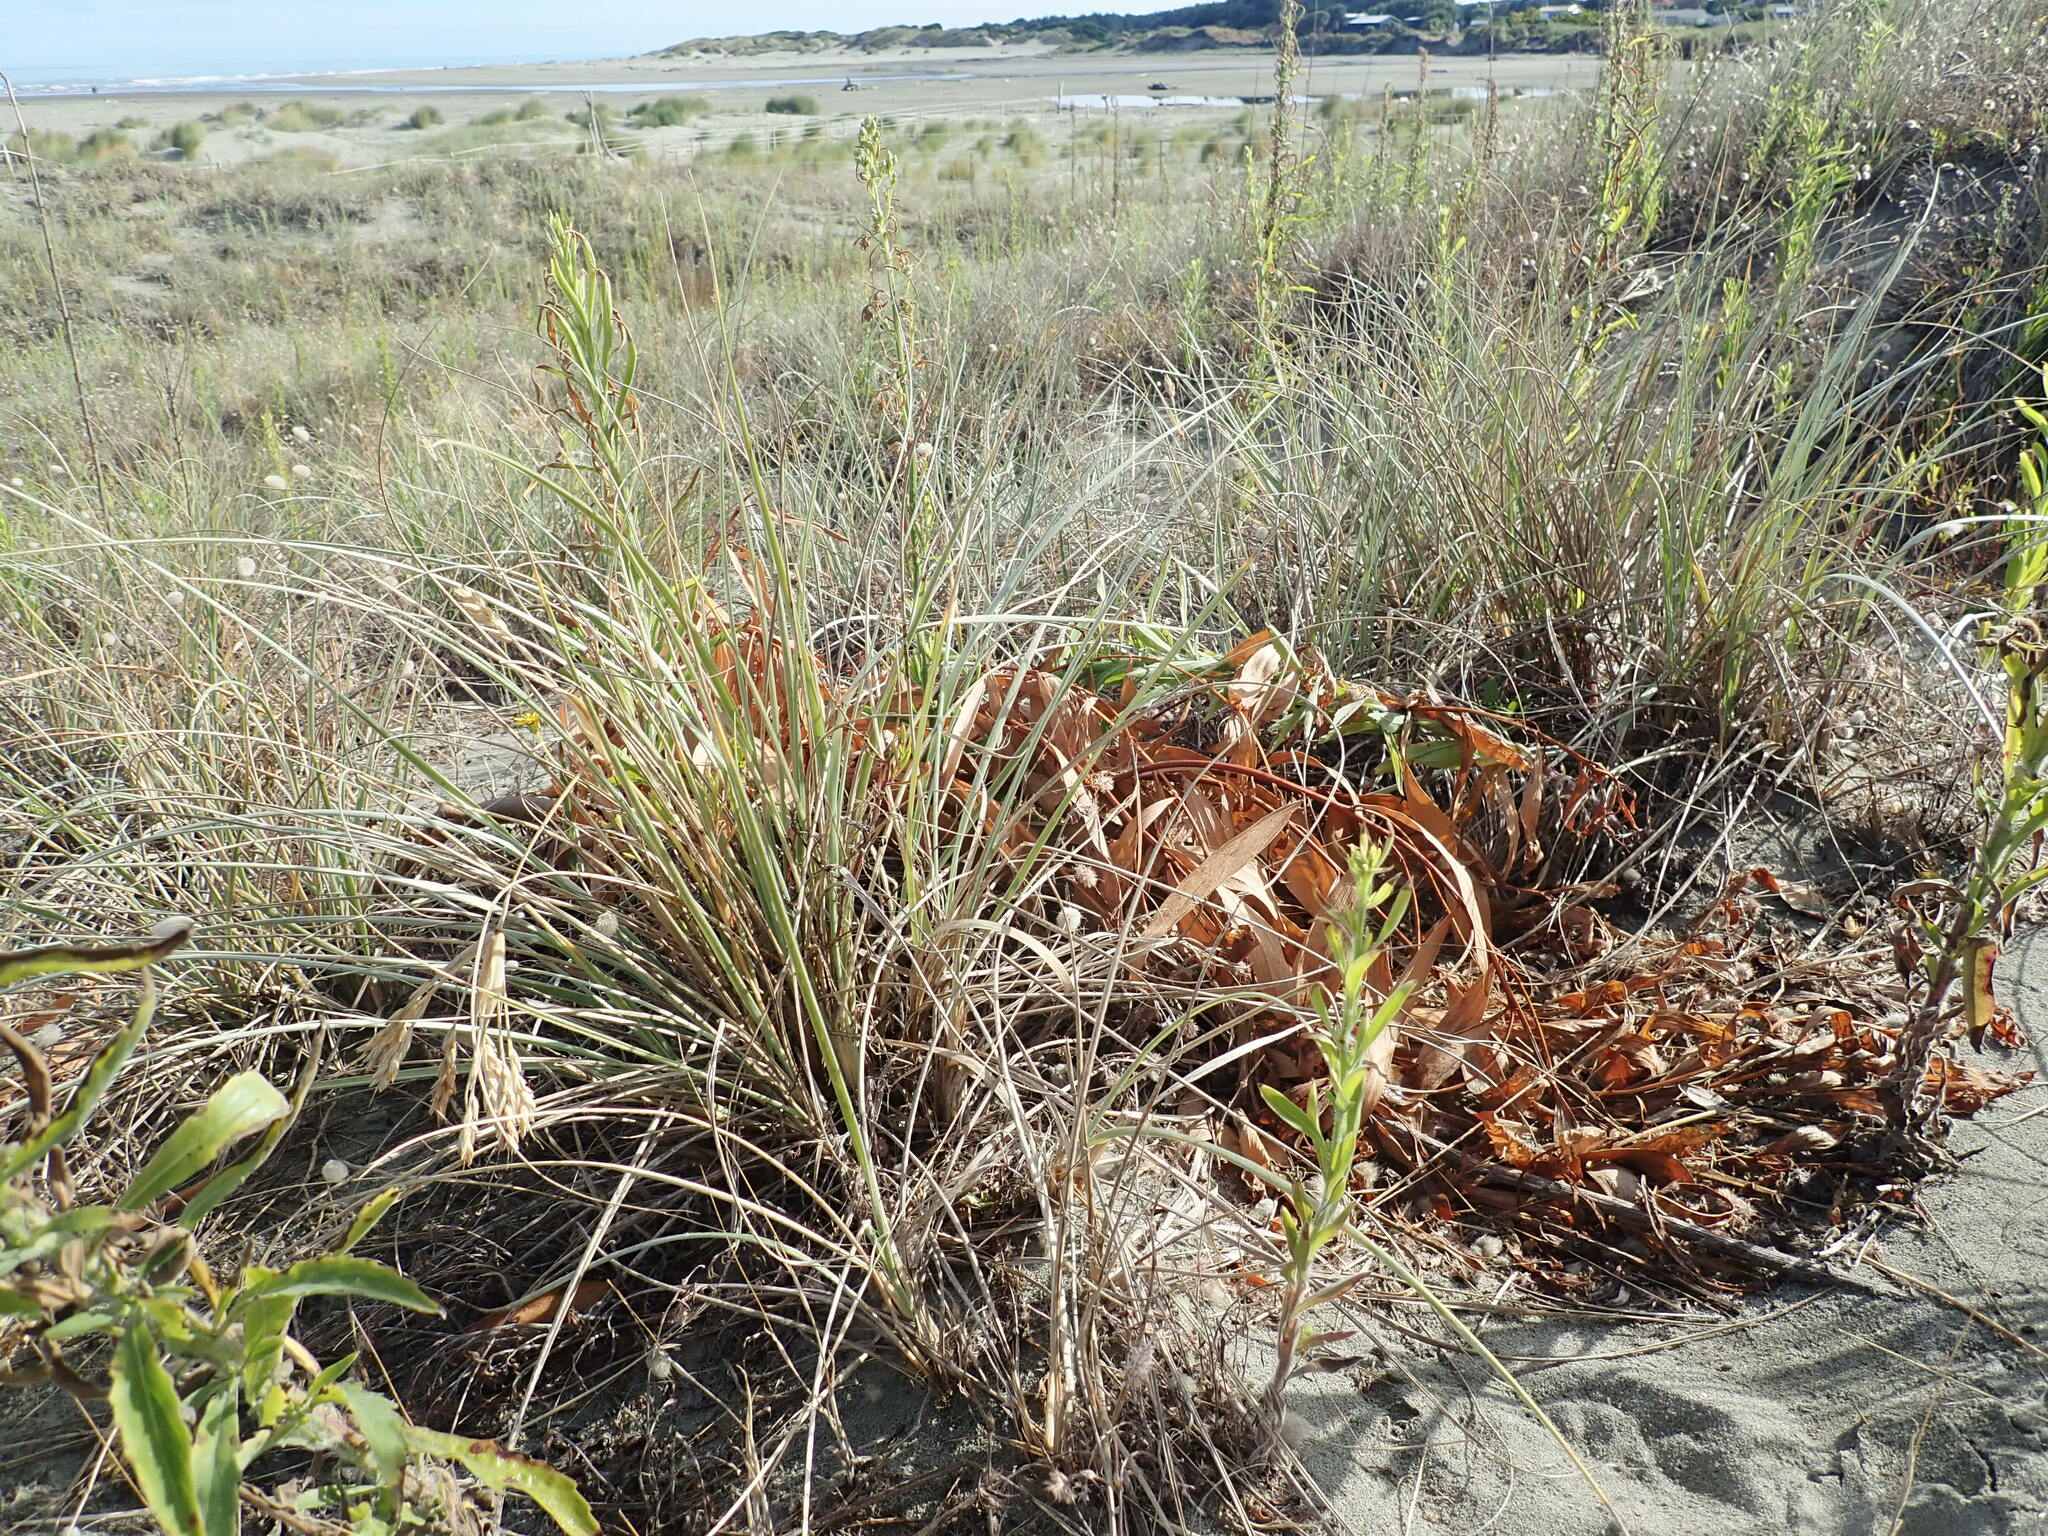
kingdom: Plantae
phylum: Tracheophyta
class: Magnoliopsida
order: Fabales
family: Fabaceae
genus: Acacia
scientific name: Acacia longifolia
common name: Sydney golden wattle
